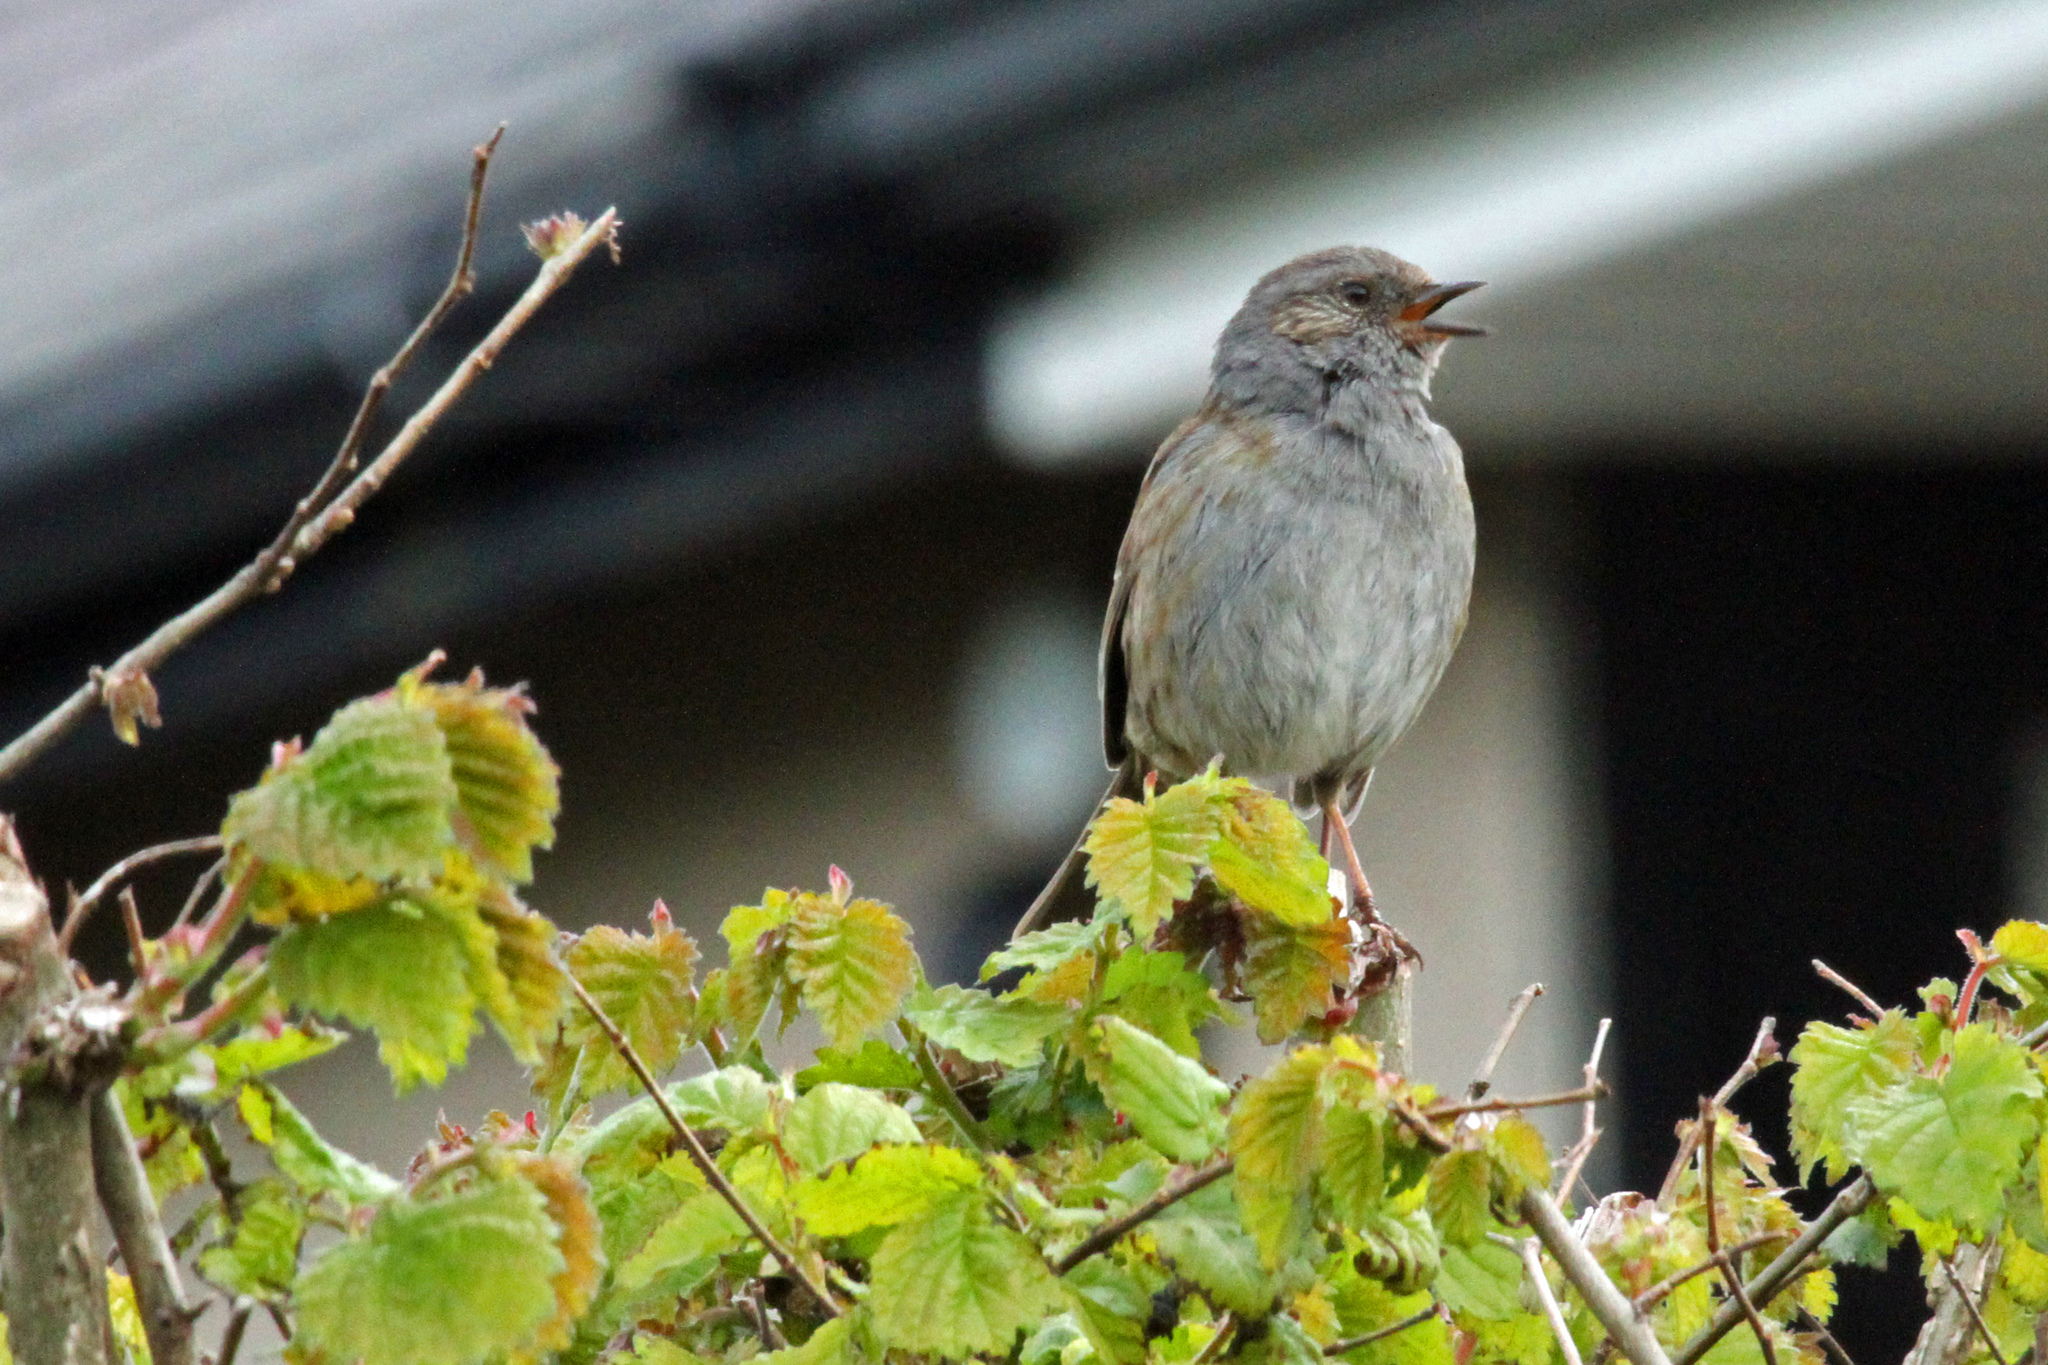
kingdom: Animalia
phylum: Chordata
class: Aves
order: Passeriformes
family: Prunellidae
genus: Prunella
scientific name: Prunella modularis
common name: Dunnock
